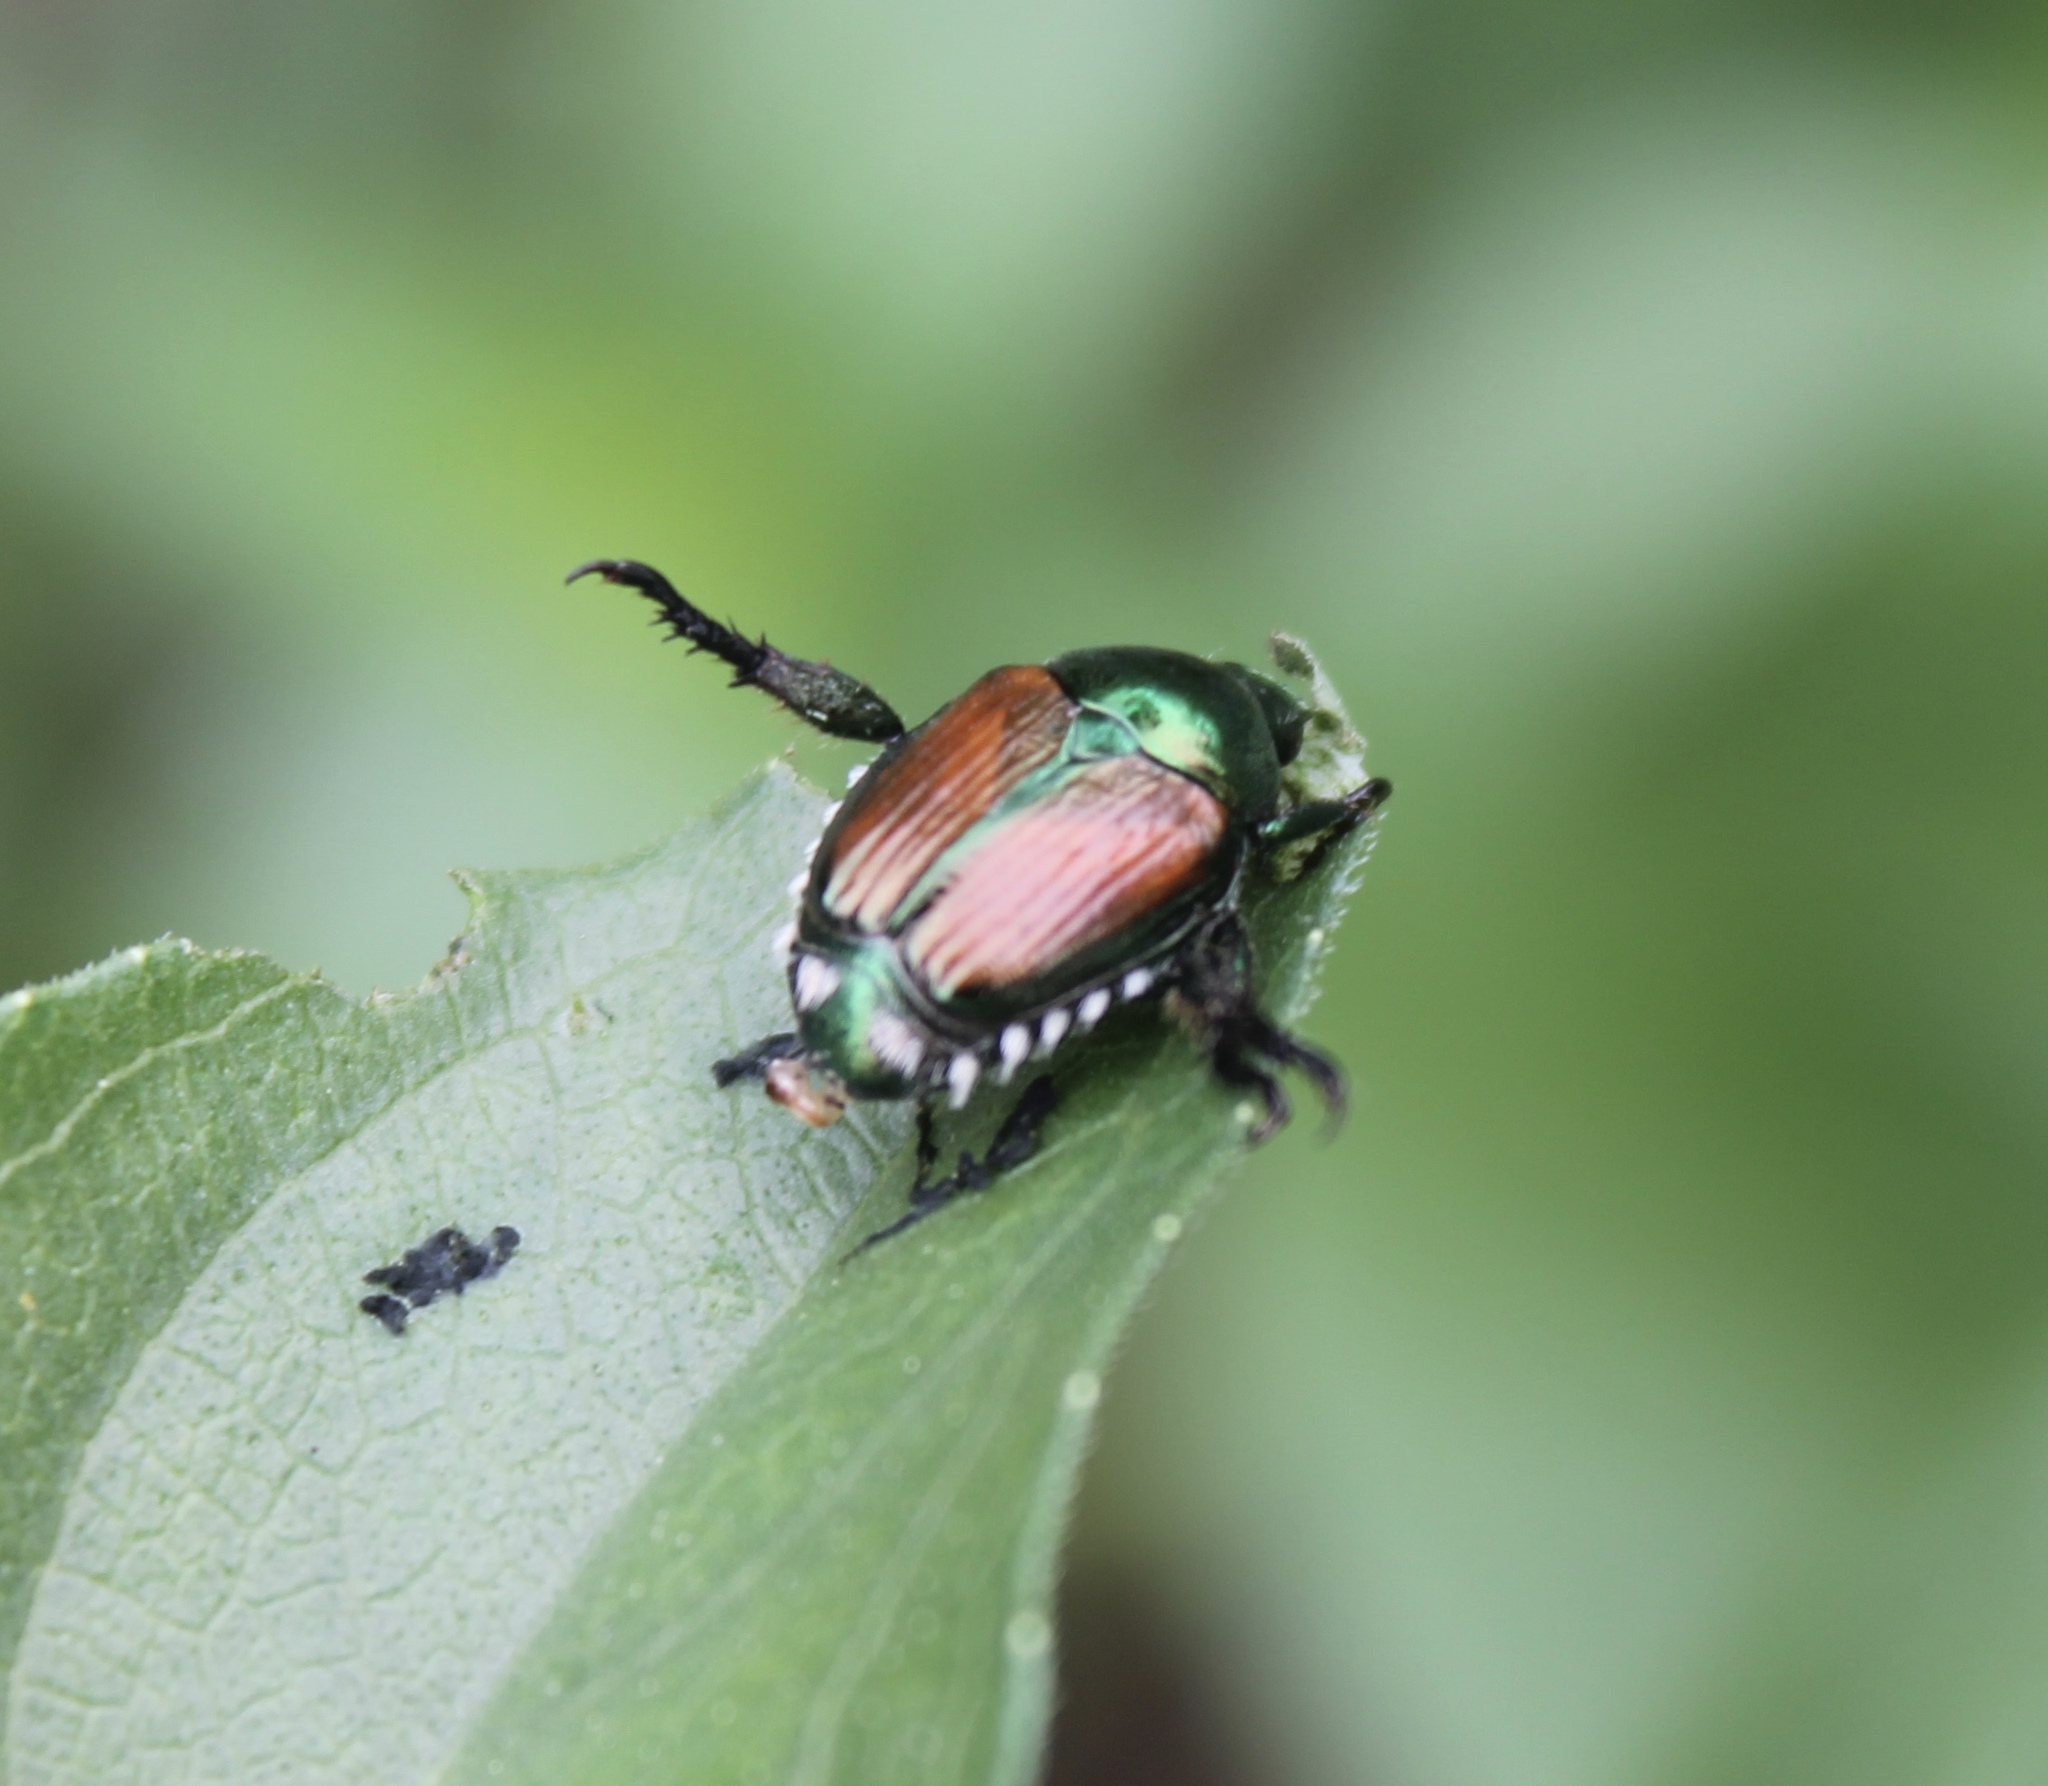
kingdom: Animalia
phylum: Arthropoda
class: Insecta
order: Coleoptera
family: Scarabaeidae
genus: Popillia
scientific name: Popillia japonica
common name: Japanese beetle
